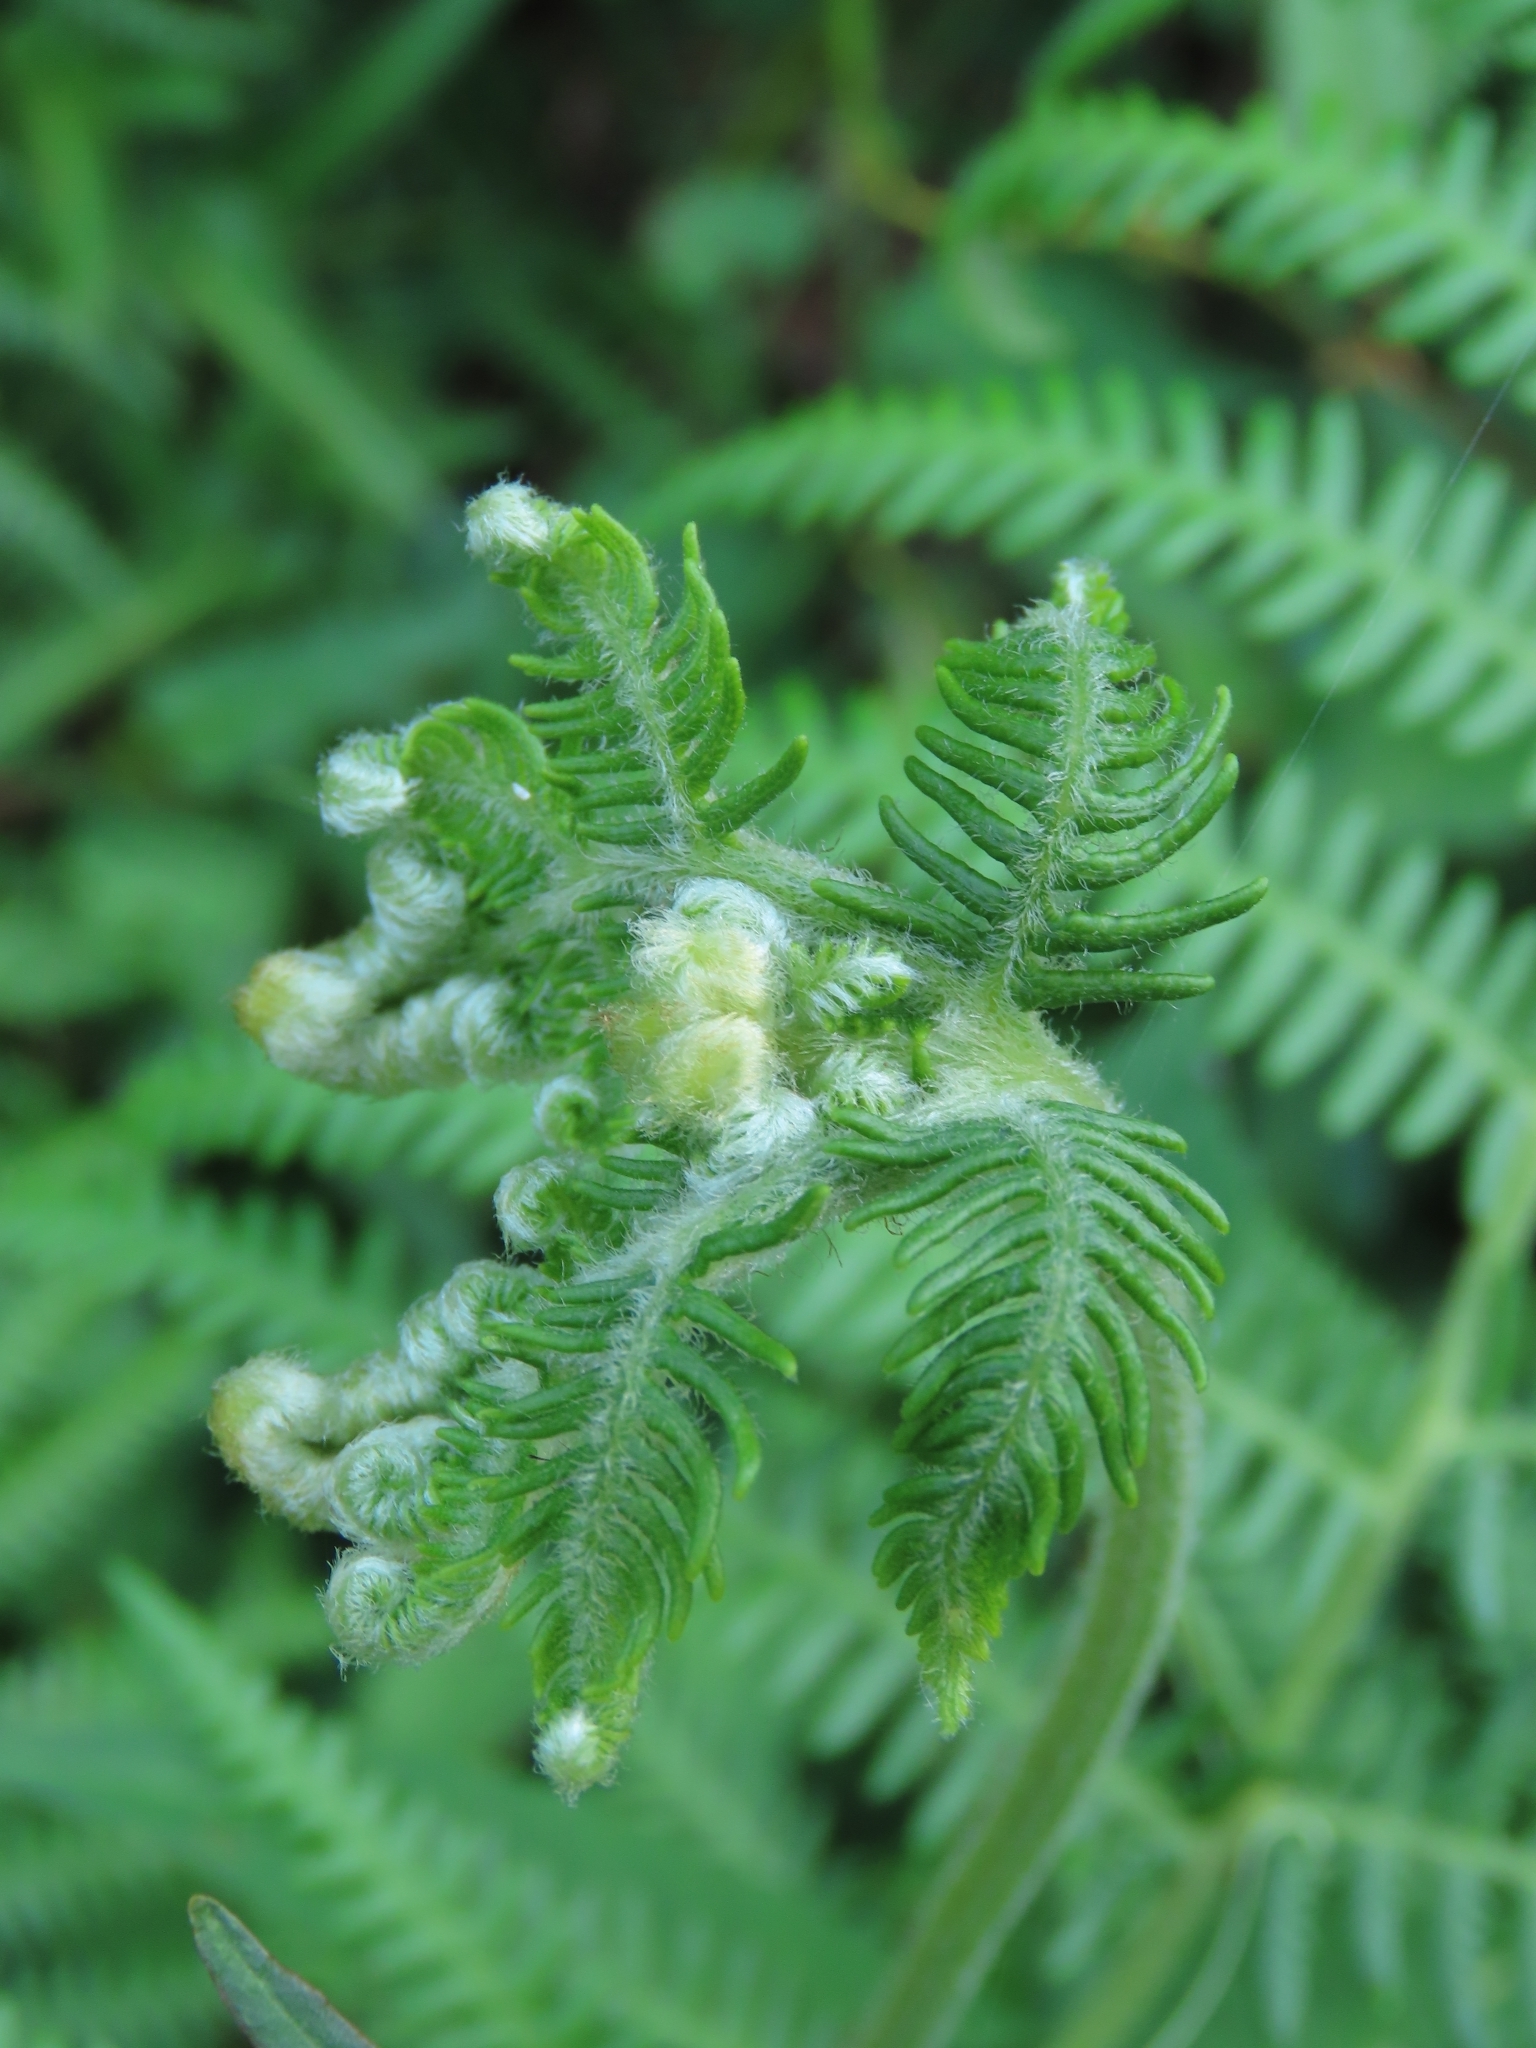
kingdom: Plantae
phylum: Tracheophyta
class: Polypodiopsida
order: Polypodiales
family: Dennstaedtiaceae
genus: Pteridium
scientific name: Pteridium aquilinum
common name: Bracken
